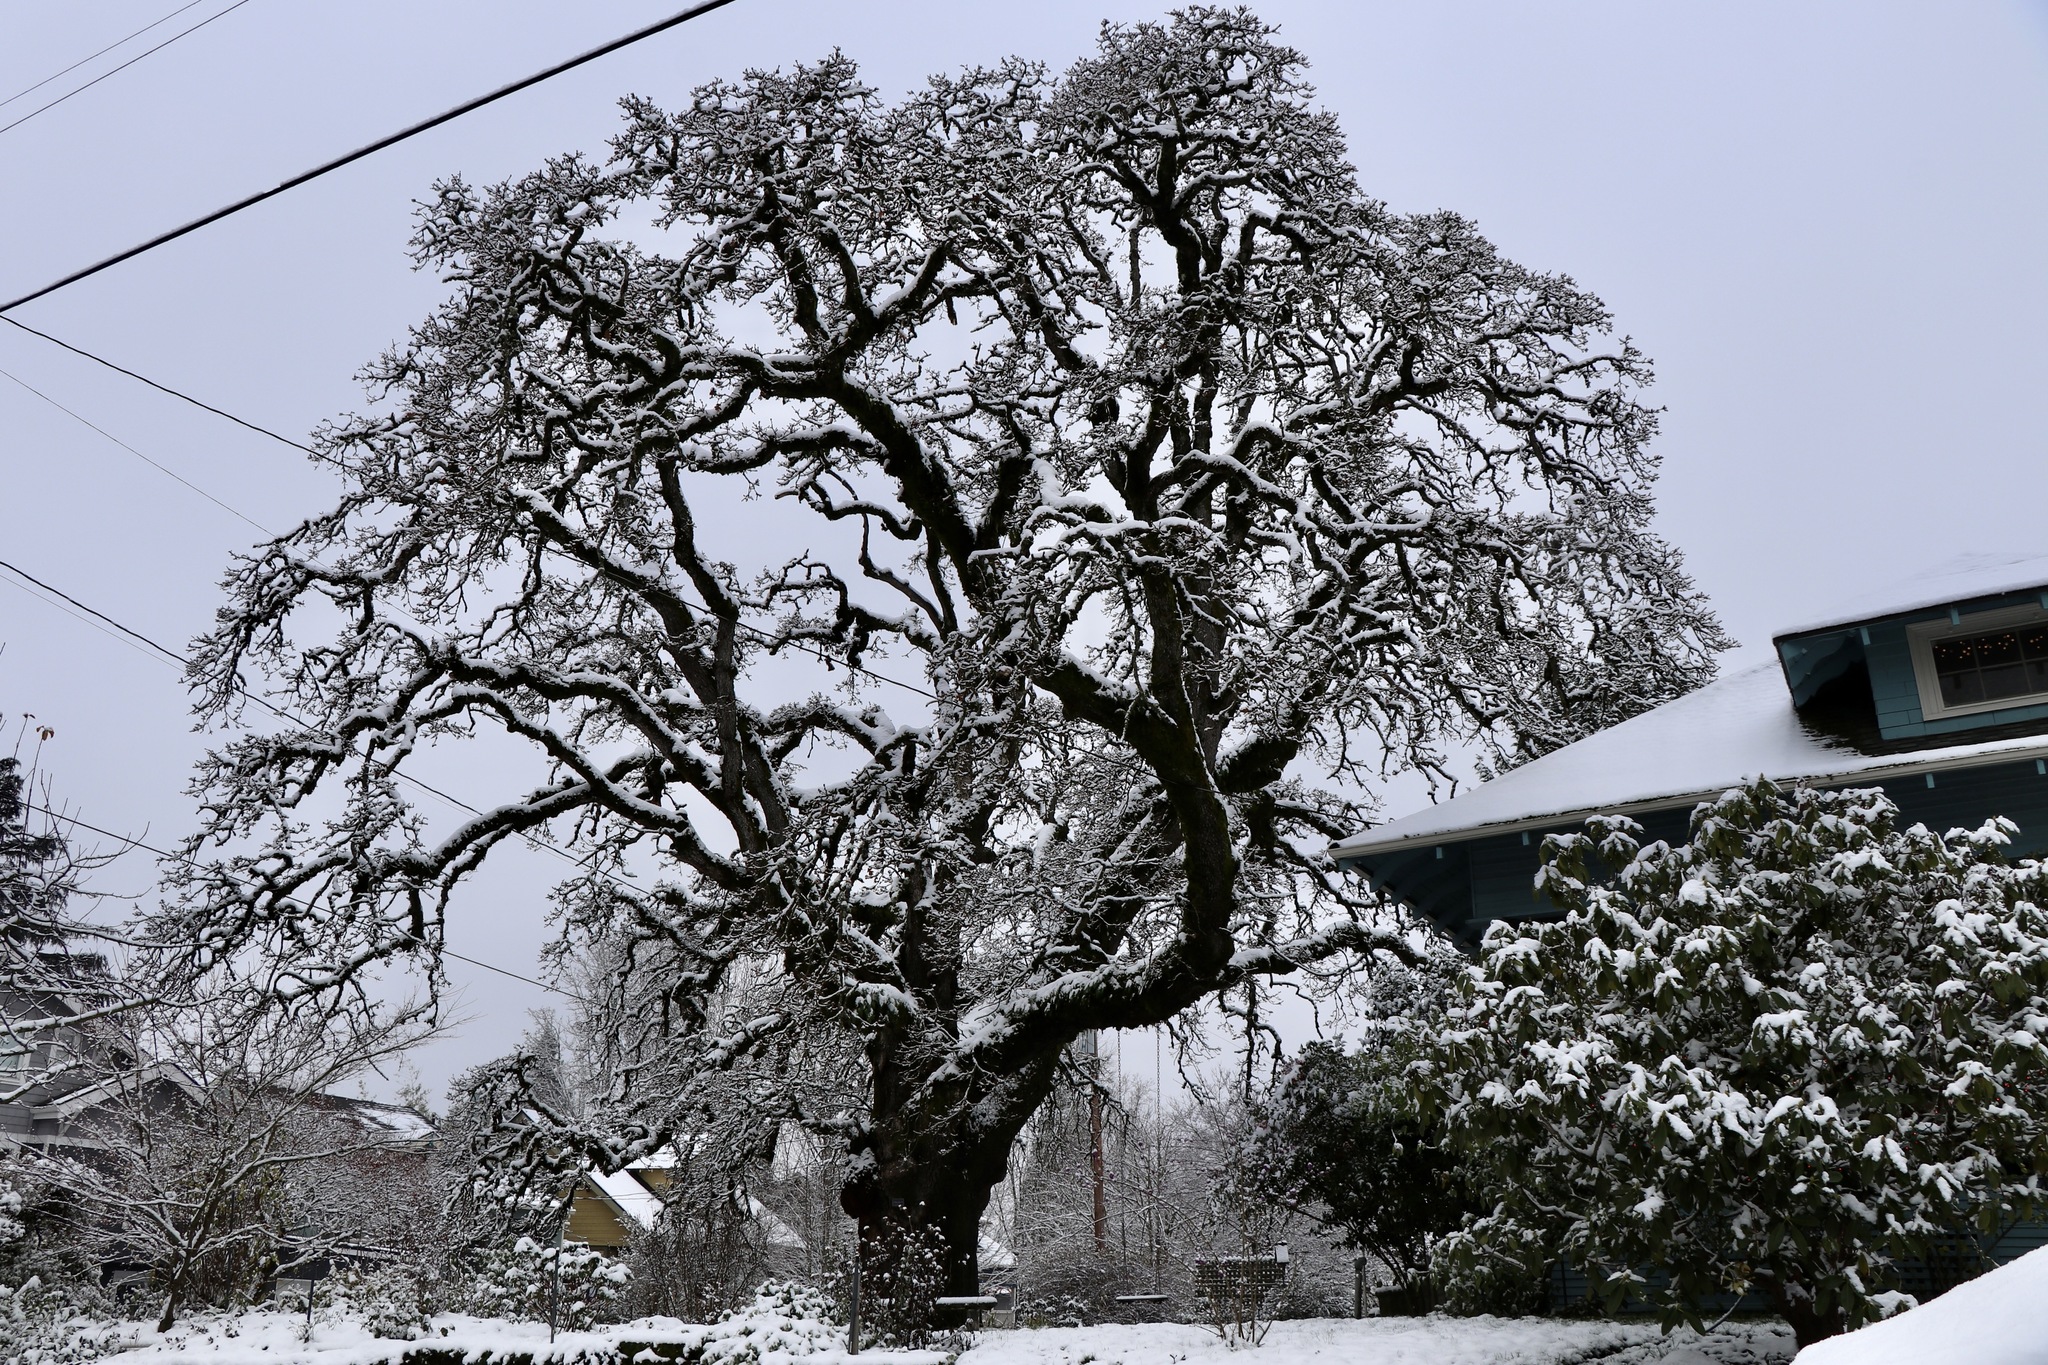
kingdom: Plantae
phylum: Tracheophyta
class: Magnoliopsida
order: Fagales
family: Fagaceae
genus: Quercus
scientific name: Quercus garryana
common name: Garry oak
